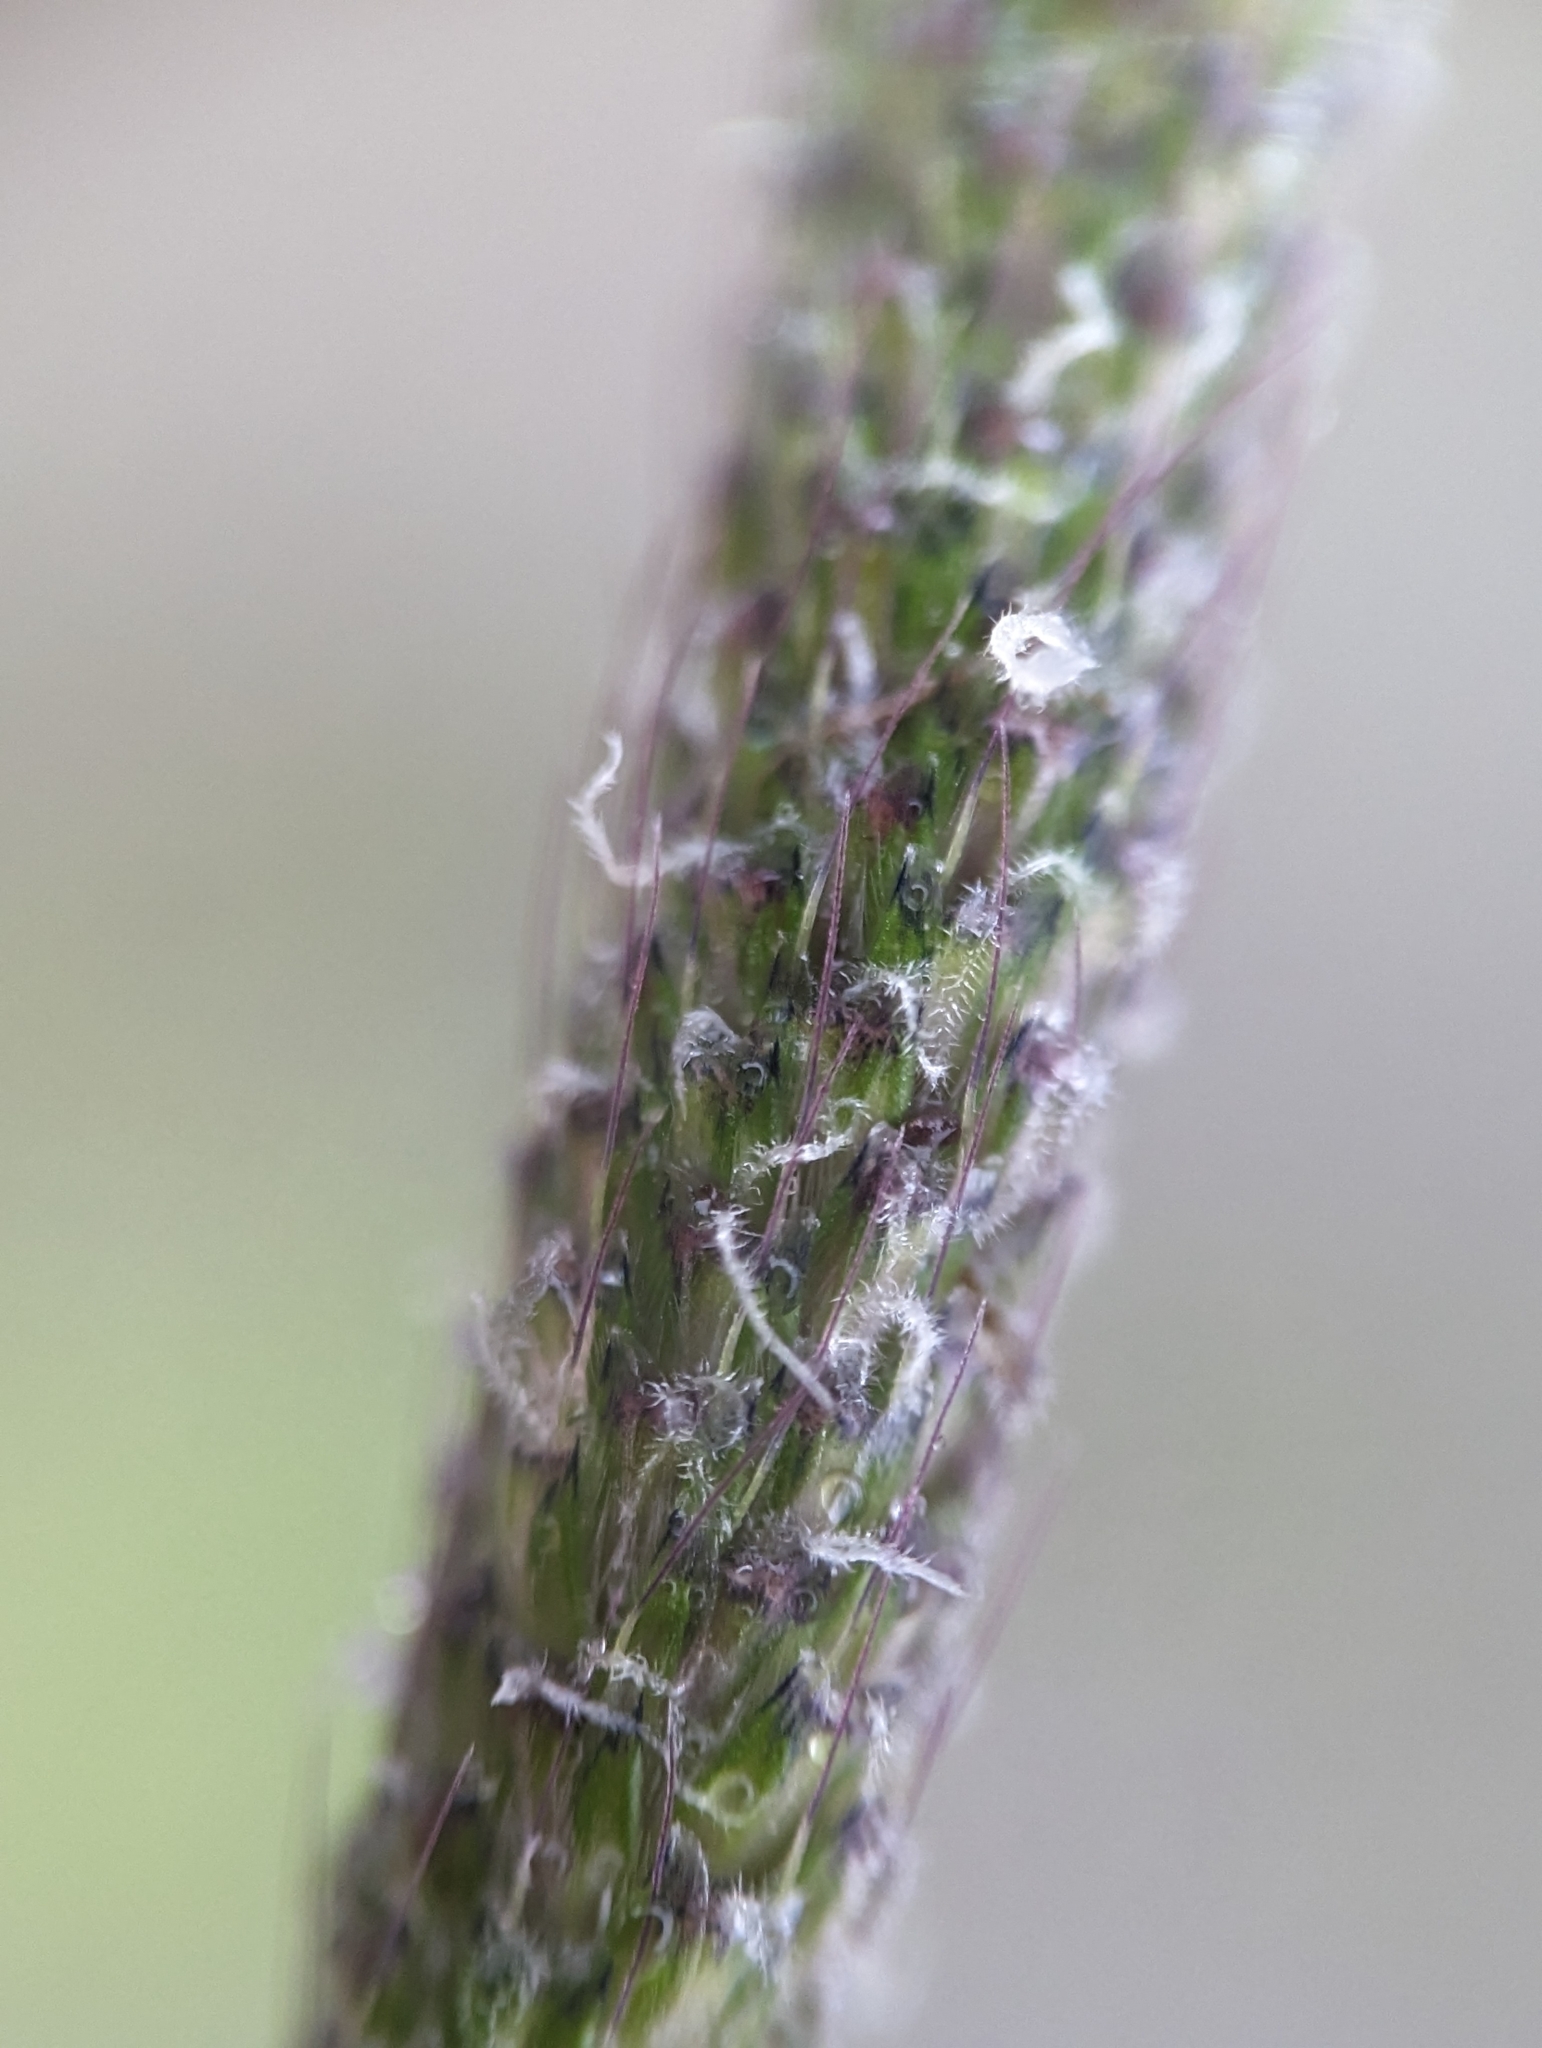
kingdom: Plantae
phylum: Tracheophyta
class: Liliopsida
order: Poales
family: Poaceae
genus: Alopecurus
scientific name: Alopecurus geniculatus
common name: Water foxtail
